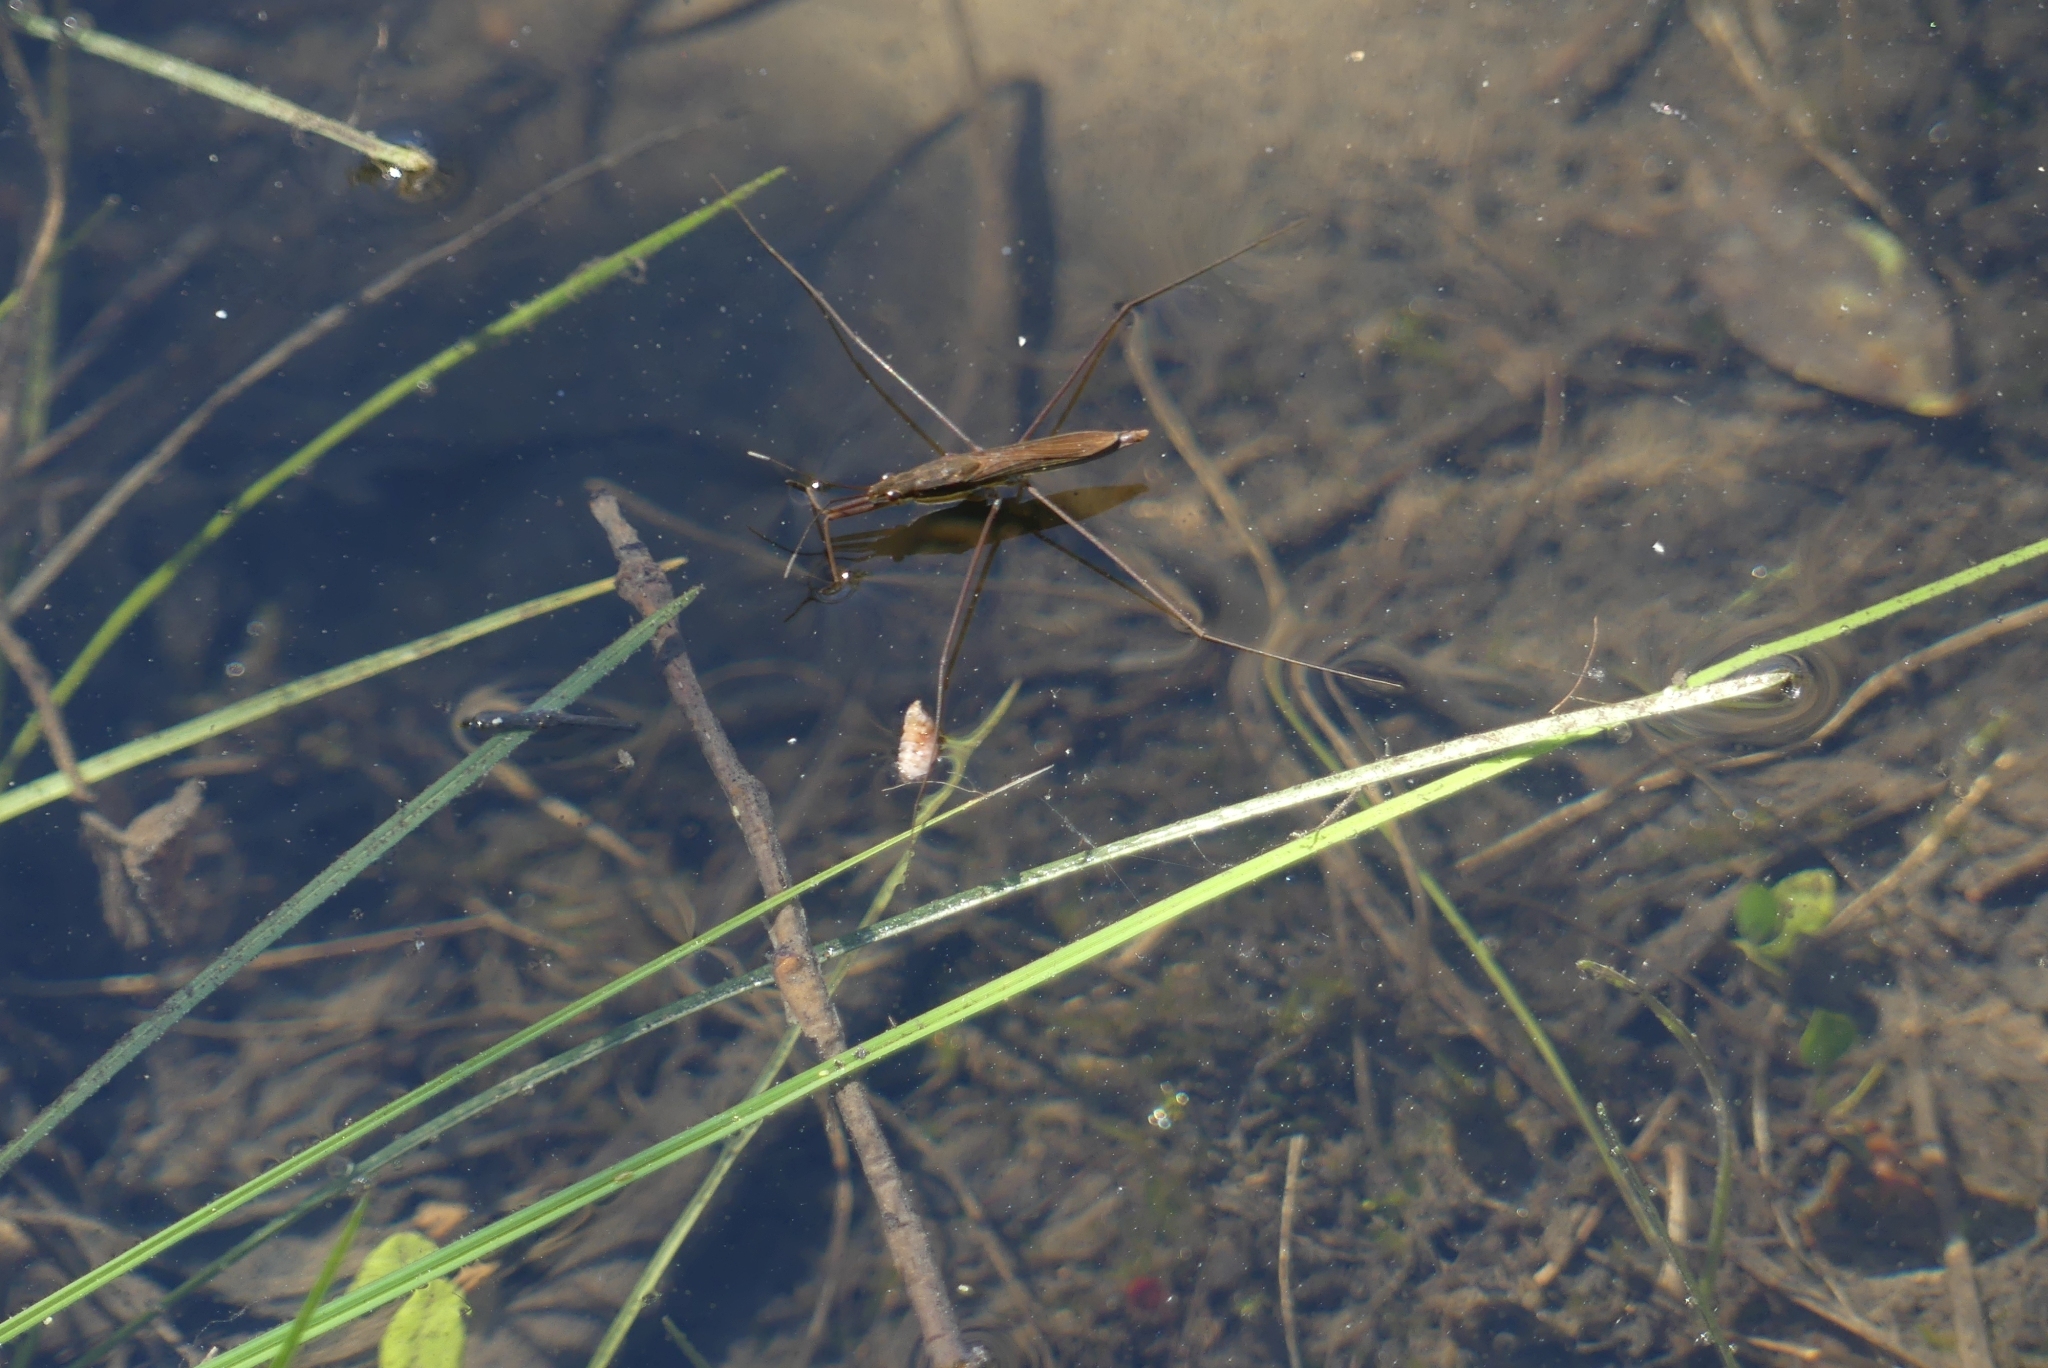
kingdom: Animalia
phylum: Arthropoda
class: Insecta
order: Hemiptera
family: Gerridae
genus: Limnoporus
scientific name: Limnoporus notabilis
